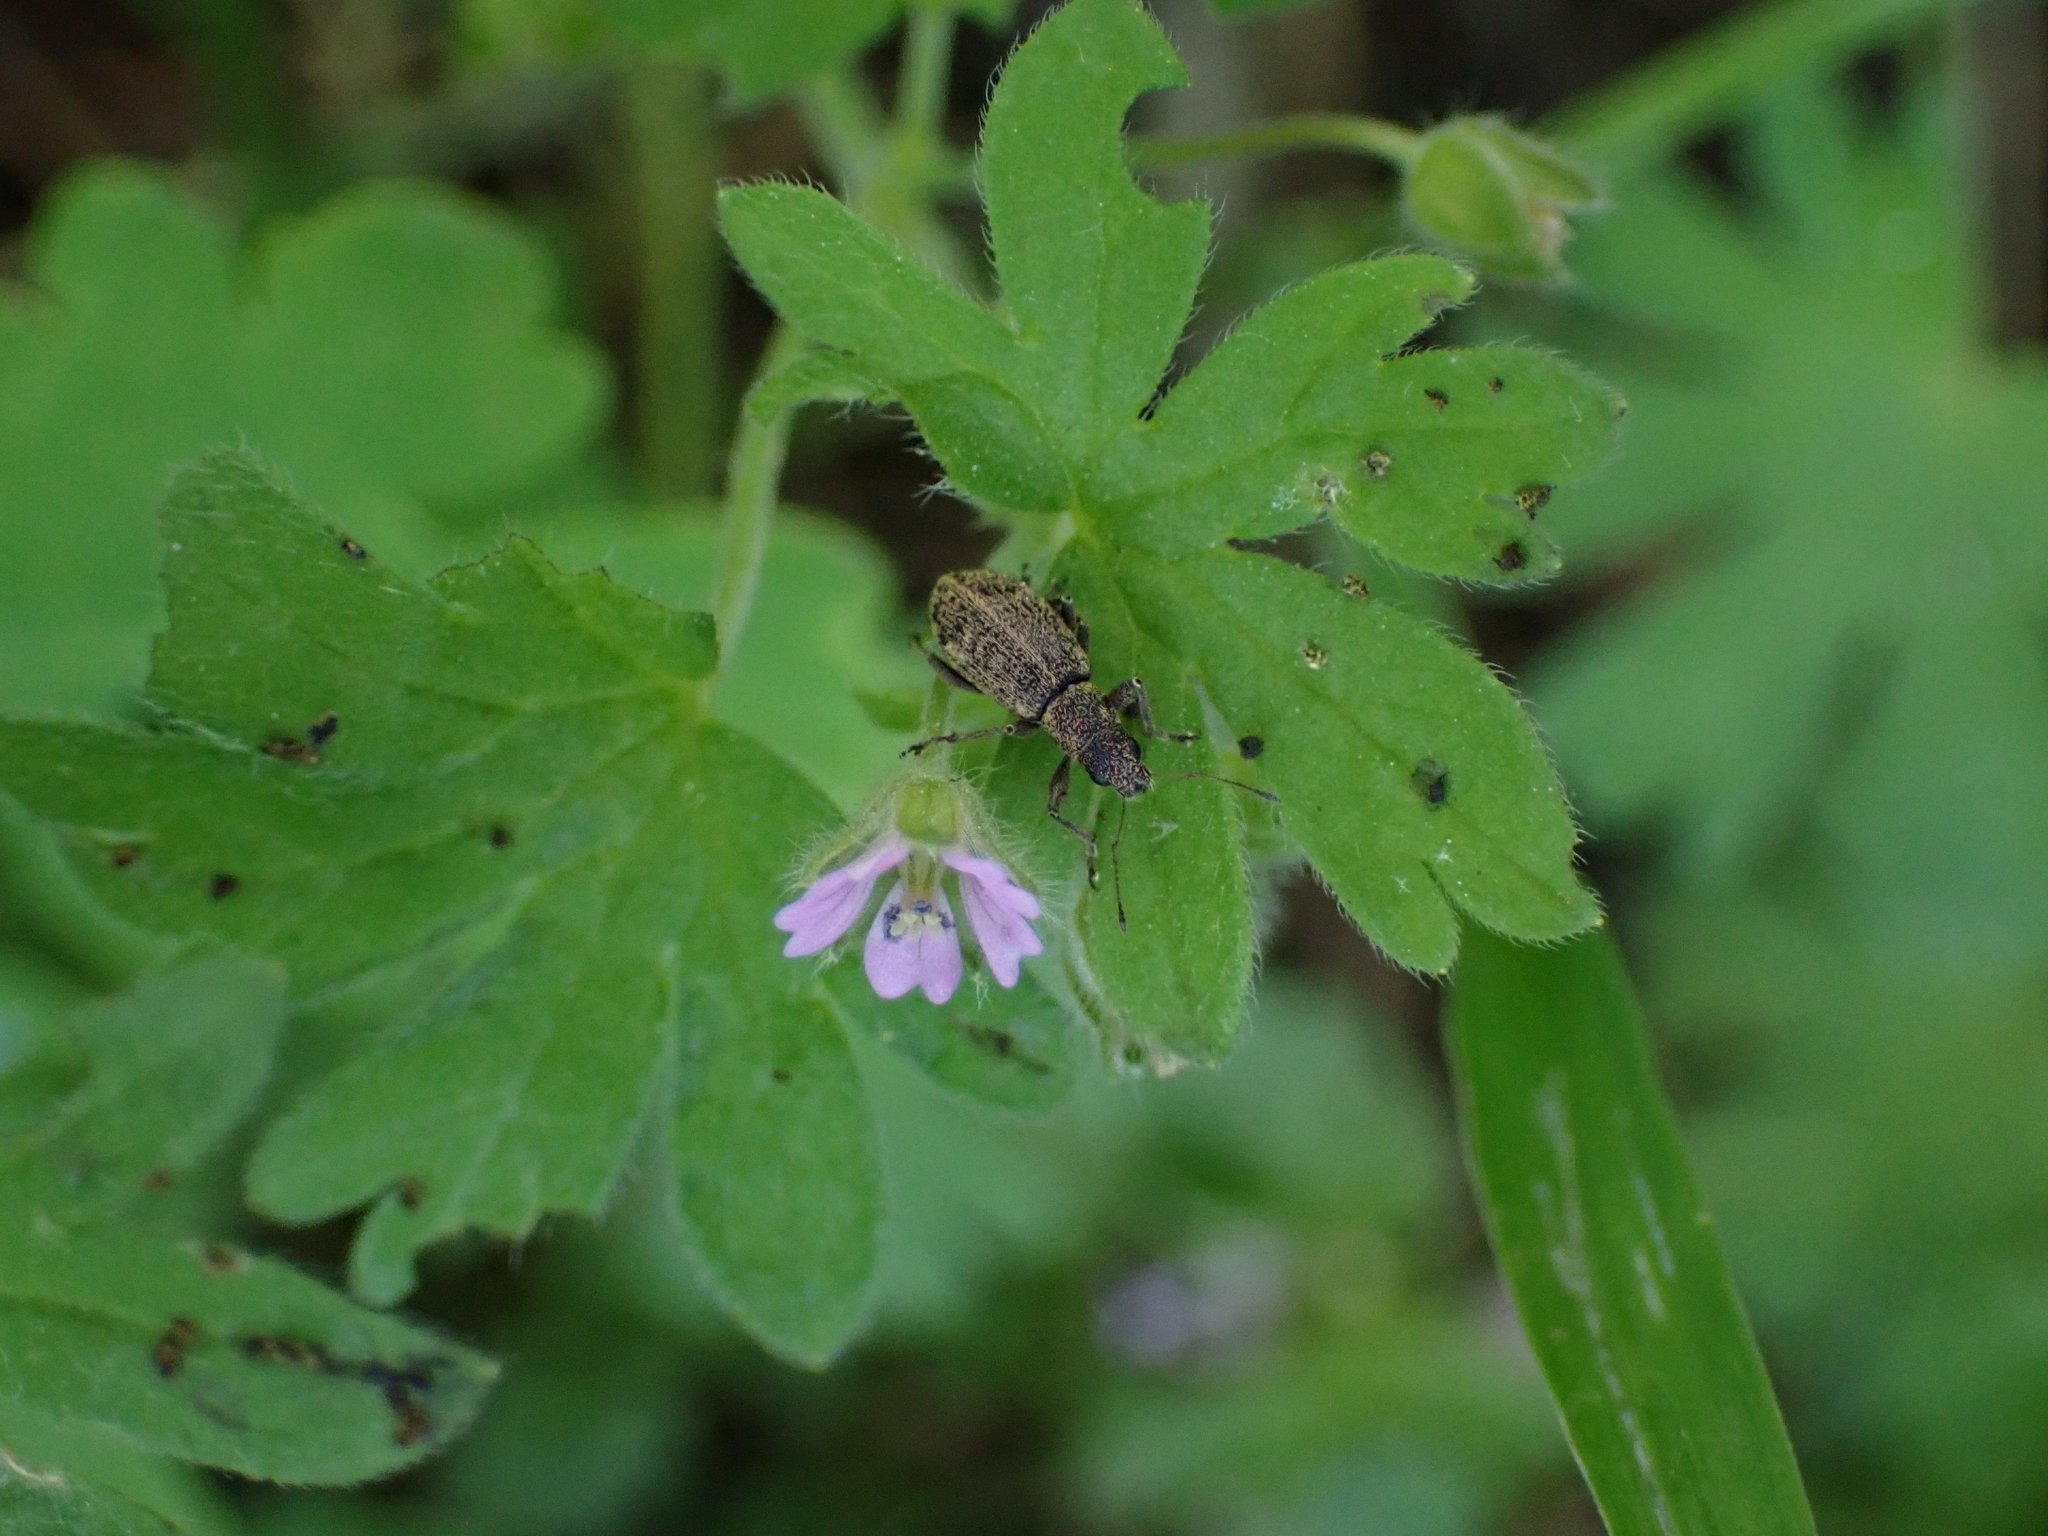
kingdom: Animalia
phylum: Arthropoda
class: Insecta
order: Coleoptera
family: Curculionidae
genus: Polydrusus
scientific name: Polydrusus inustus
